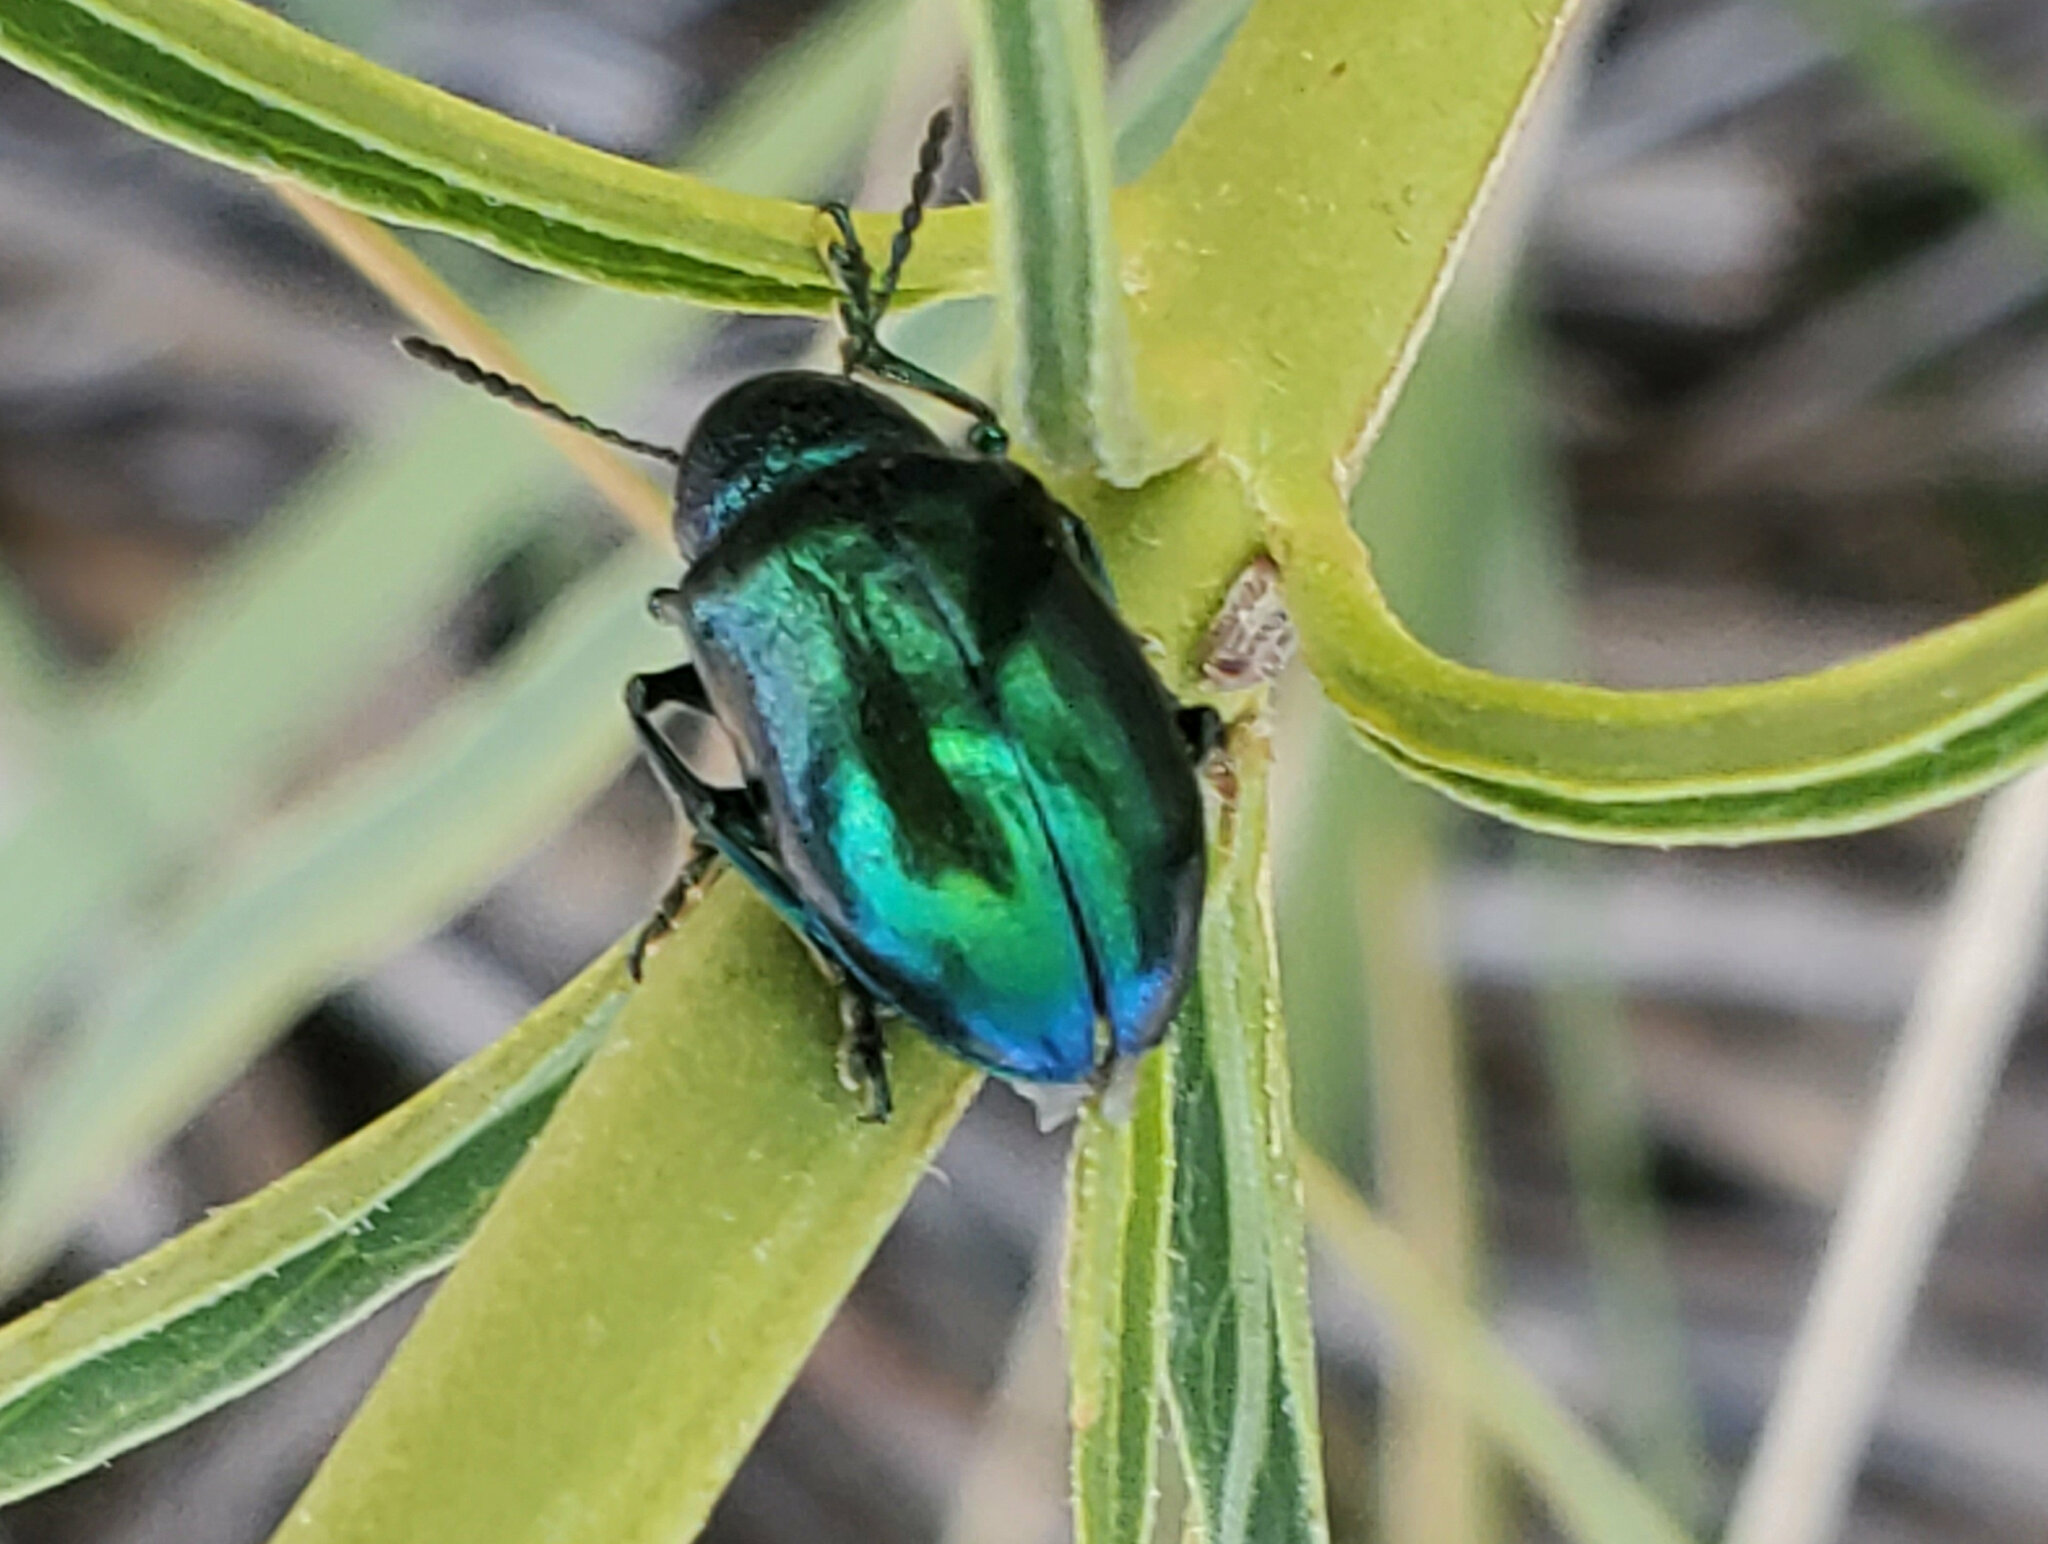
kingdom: Animalia
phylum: Arthropoda
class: Insecta
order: Coleoptera
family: Chrysomelidae
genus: Chrysochus
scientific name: Chrysochus cobaltinus
